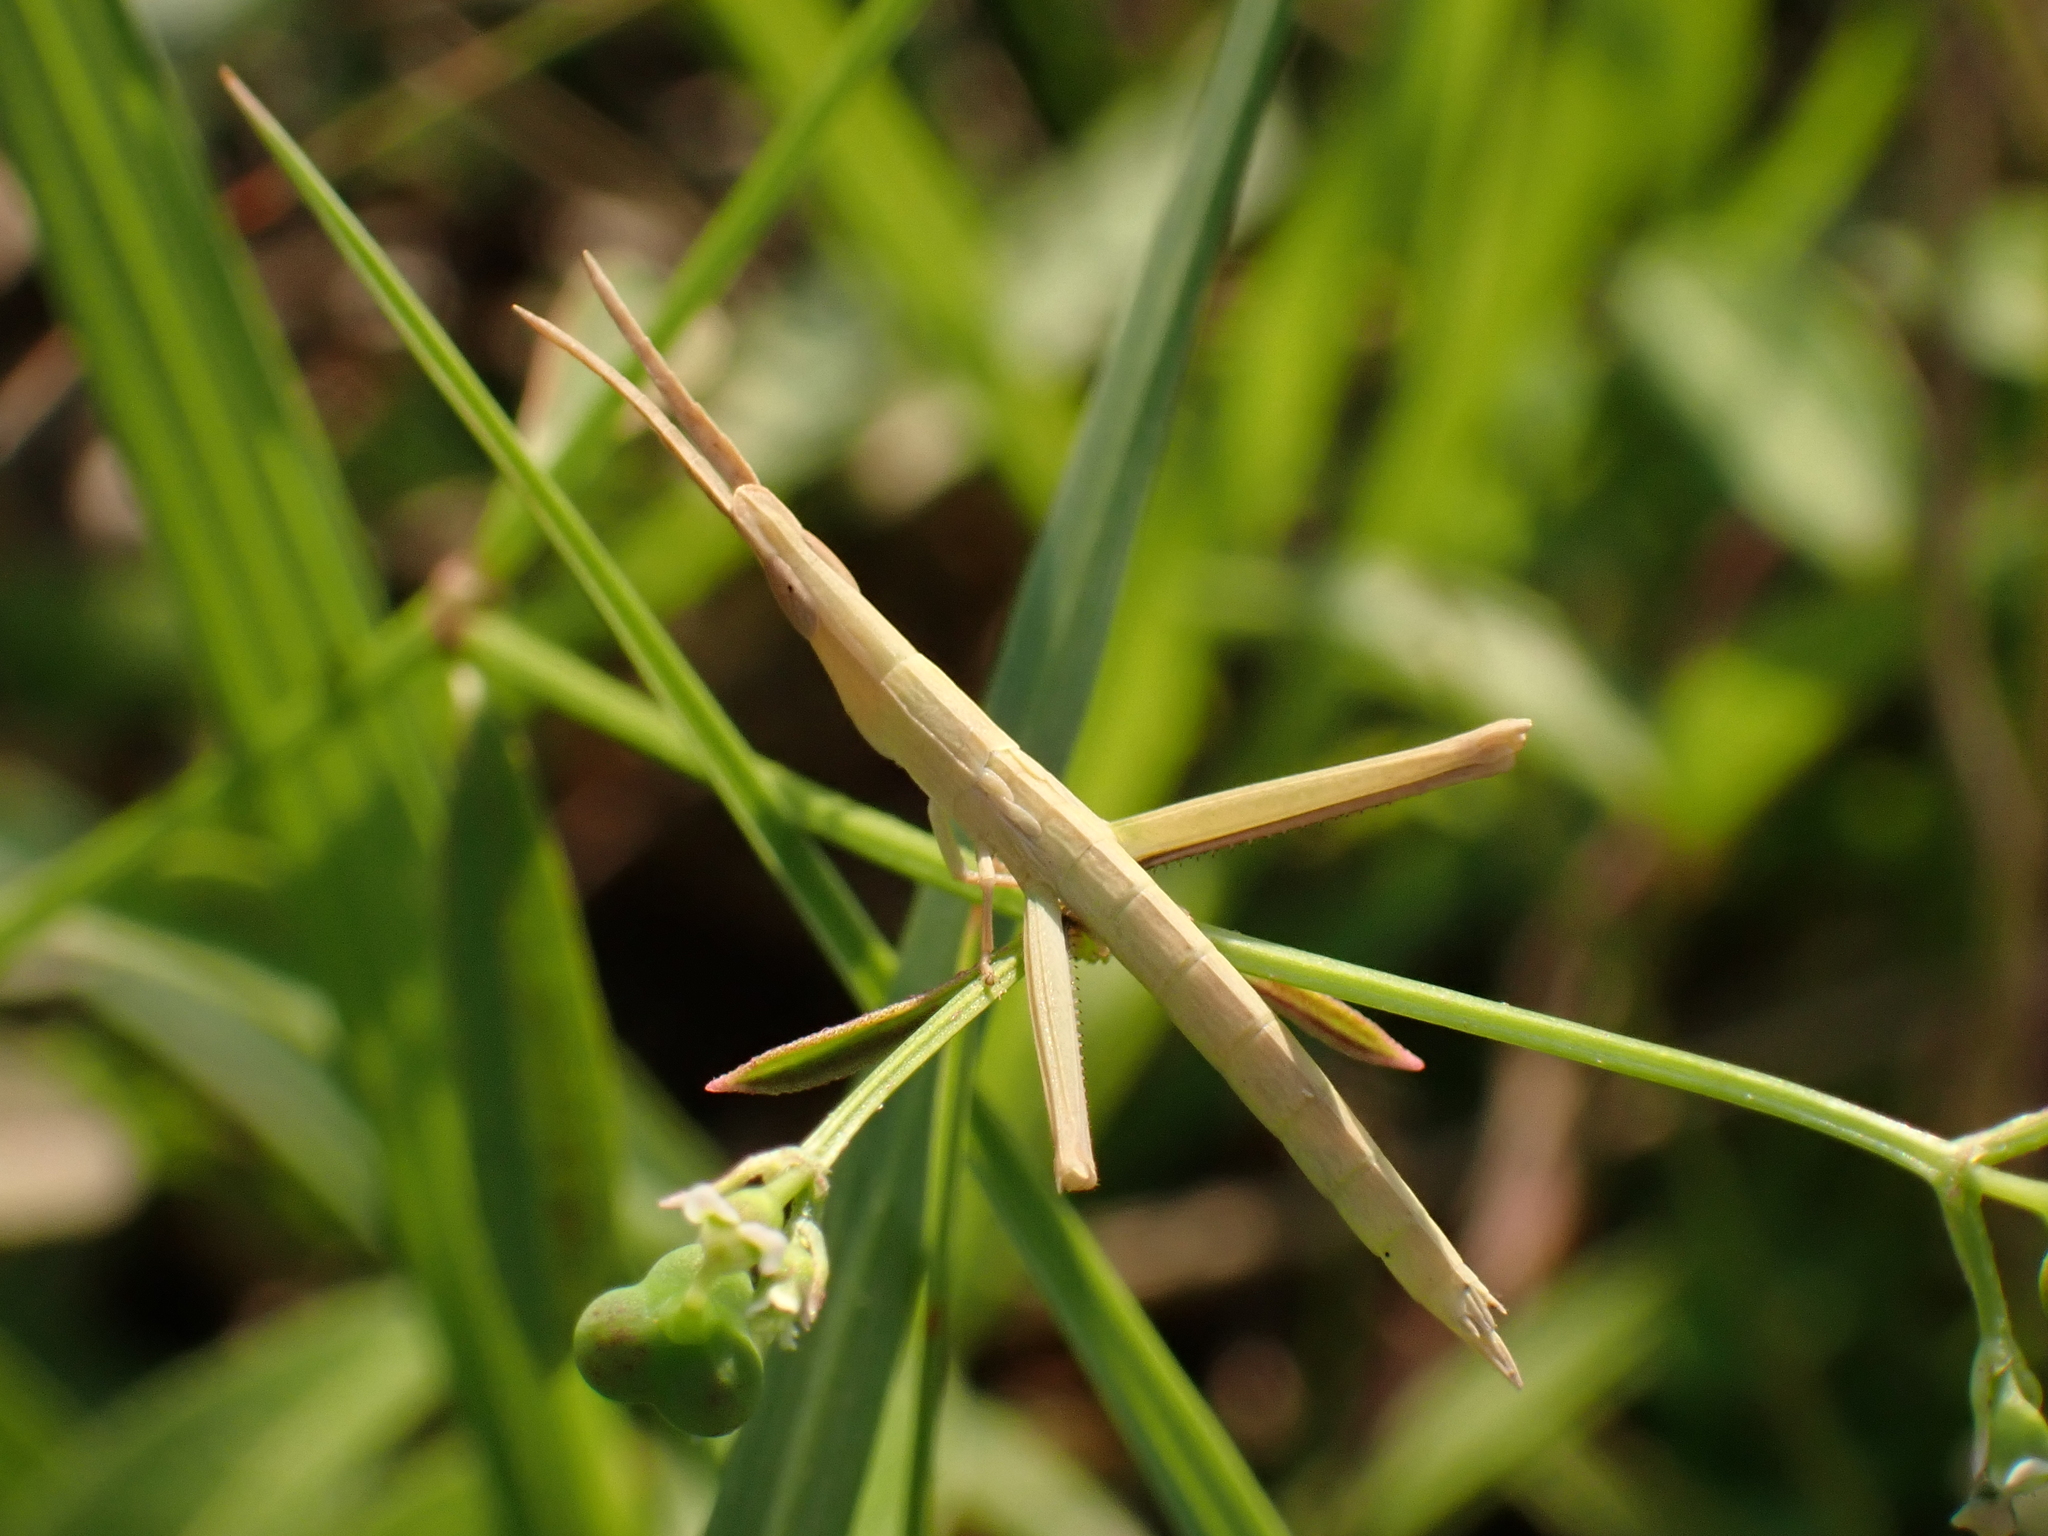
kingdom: Animalia
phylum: Arthropoda
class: Insecta
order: Orthoptera
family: Acrididae
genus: Achurum
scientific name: Achurum carinatum
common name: Long-headed toothpick grasshopper
